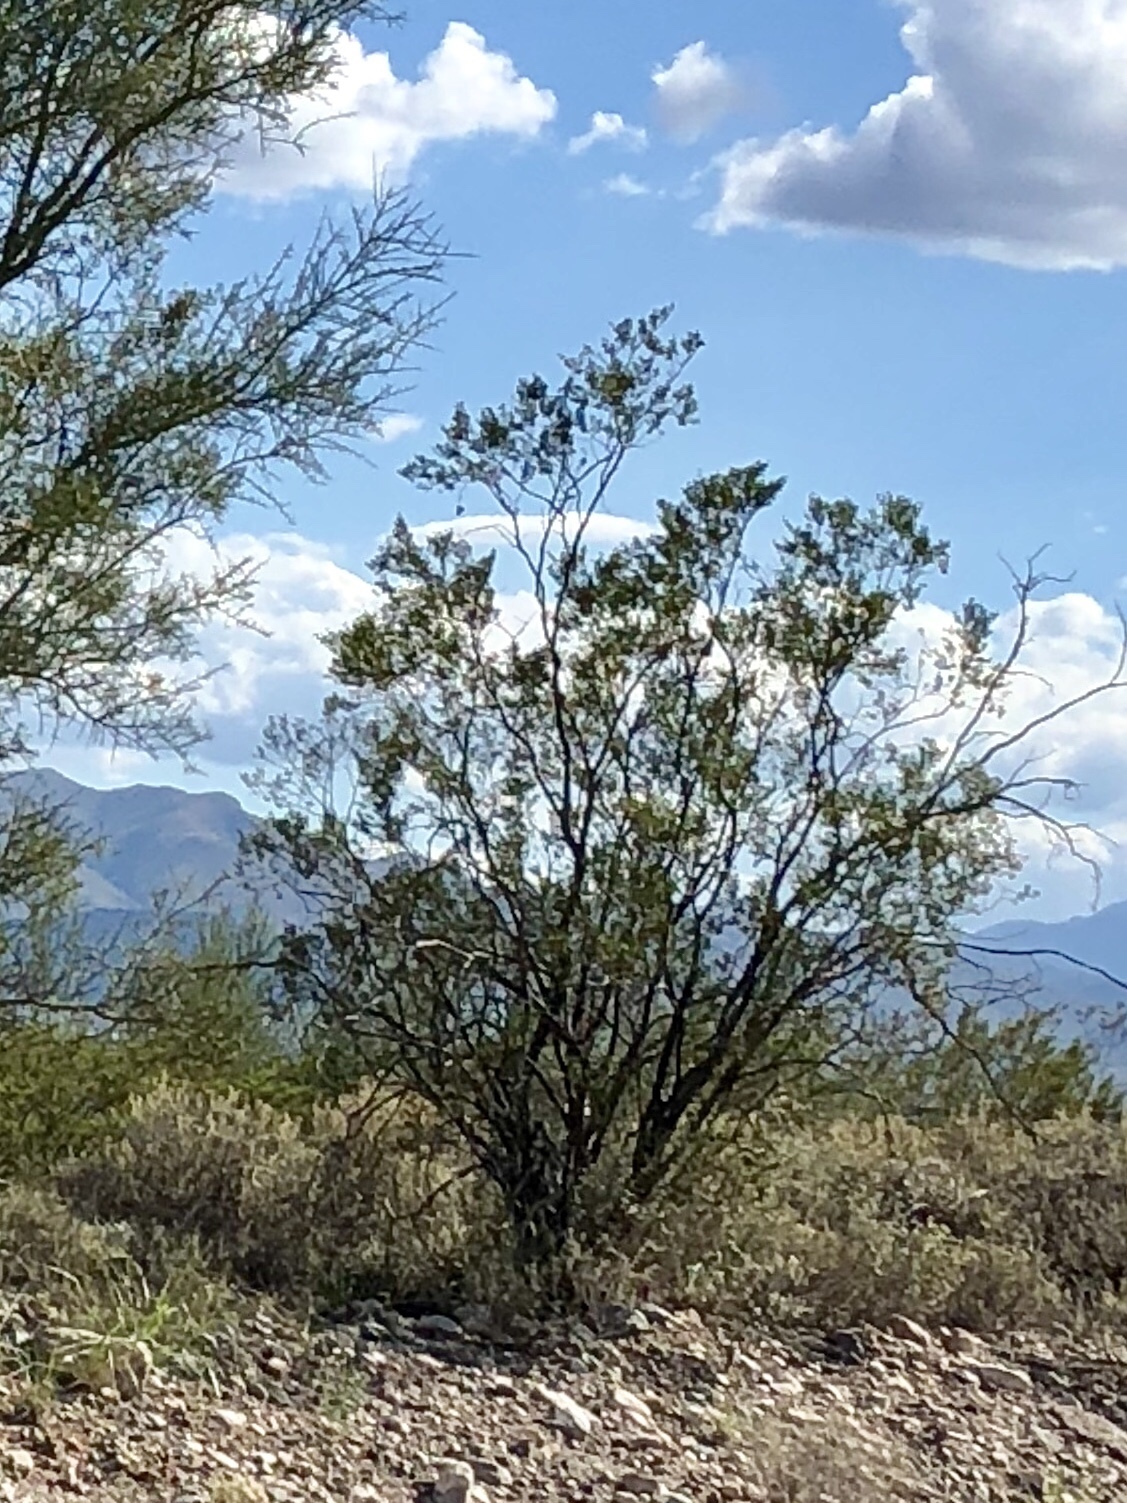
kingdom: Plantae
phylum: Tracheophyta
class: Magnoliopsida
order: Zygophyllales
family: Zygophyllaceae
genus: Larrea
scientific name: Larrea tridentata
